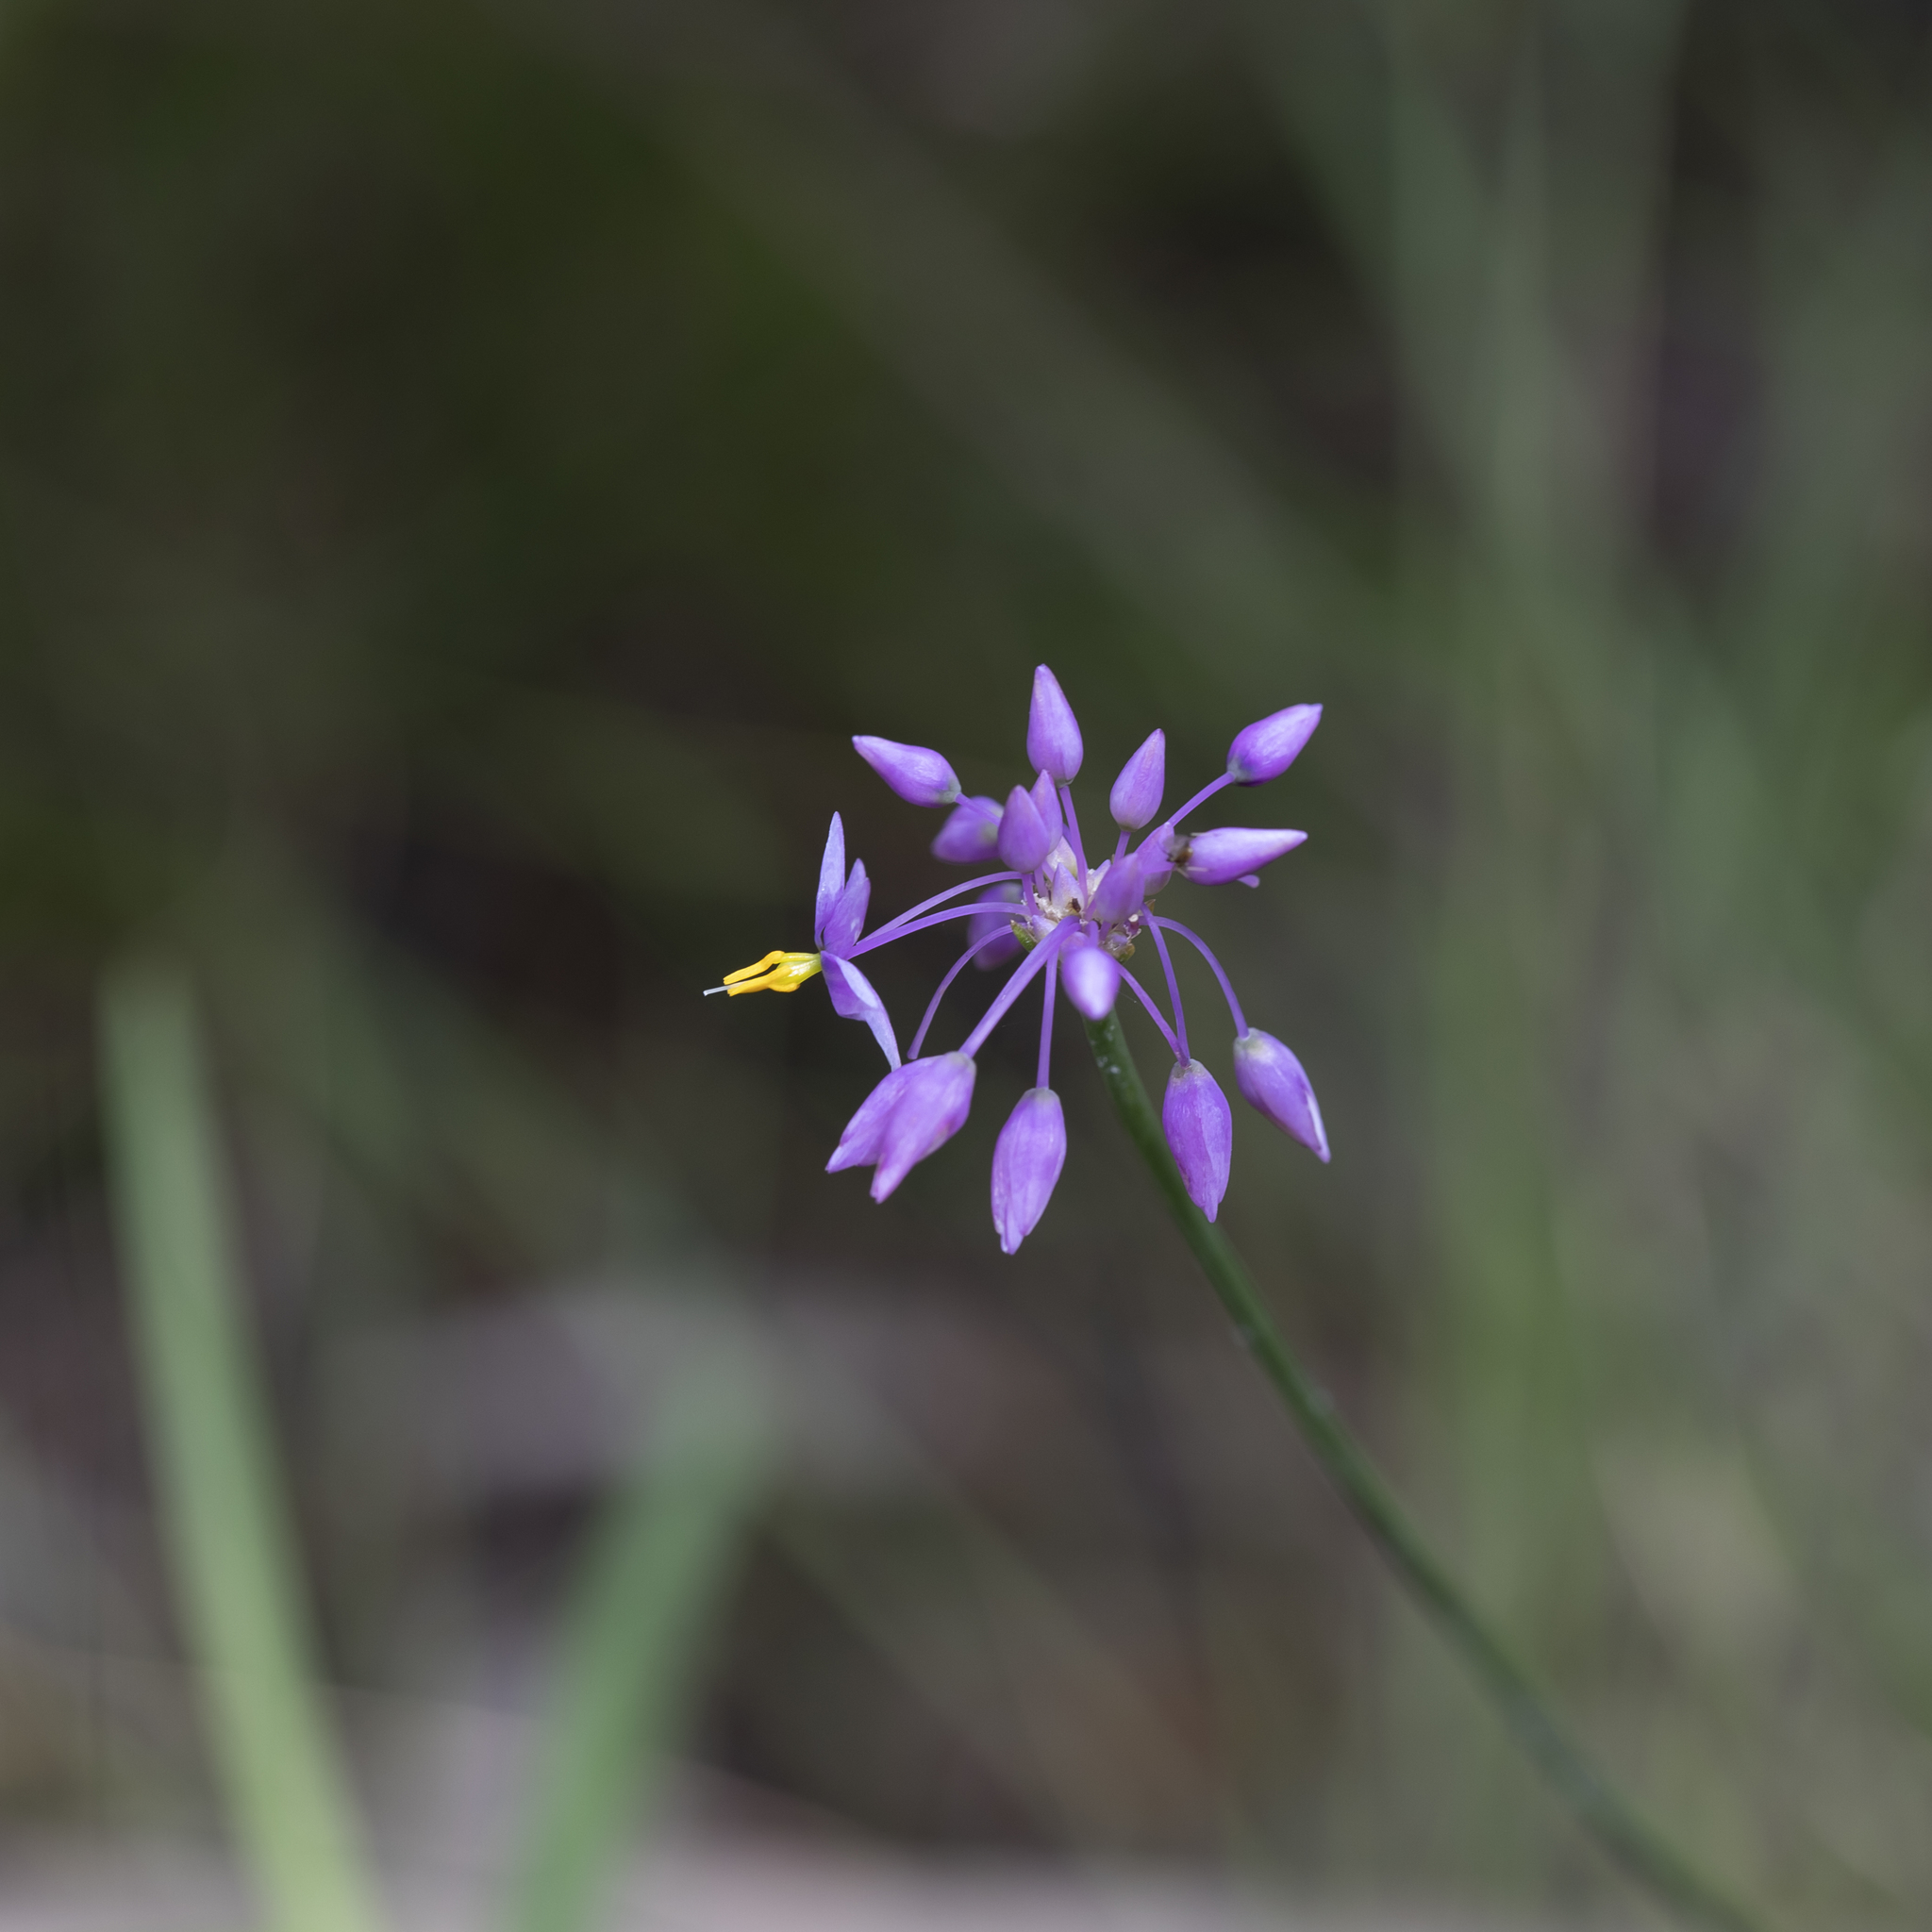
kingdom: Plantae
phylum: Tracheophyta
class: Liliopsida
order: Asparagales
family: Asparagaceae
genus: Sowerbaea
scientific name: Sowerbaea alliacea
